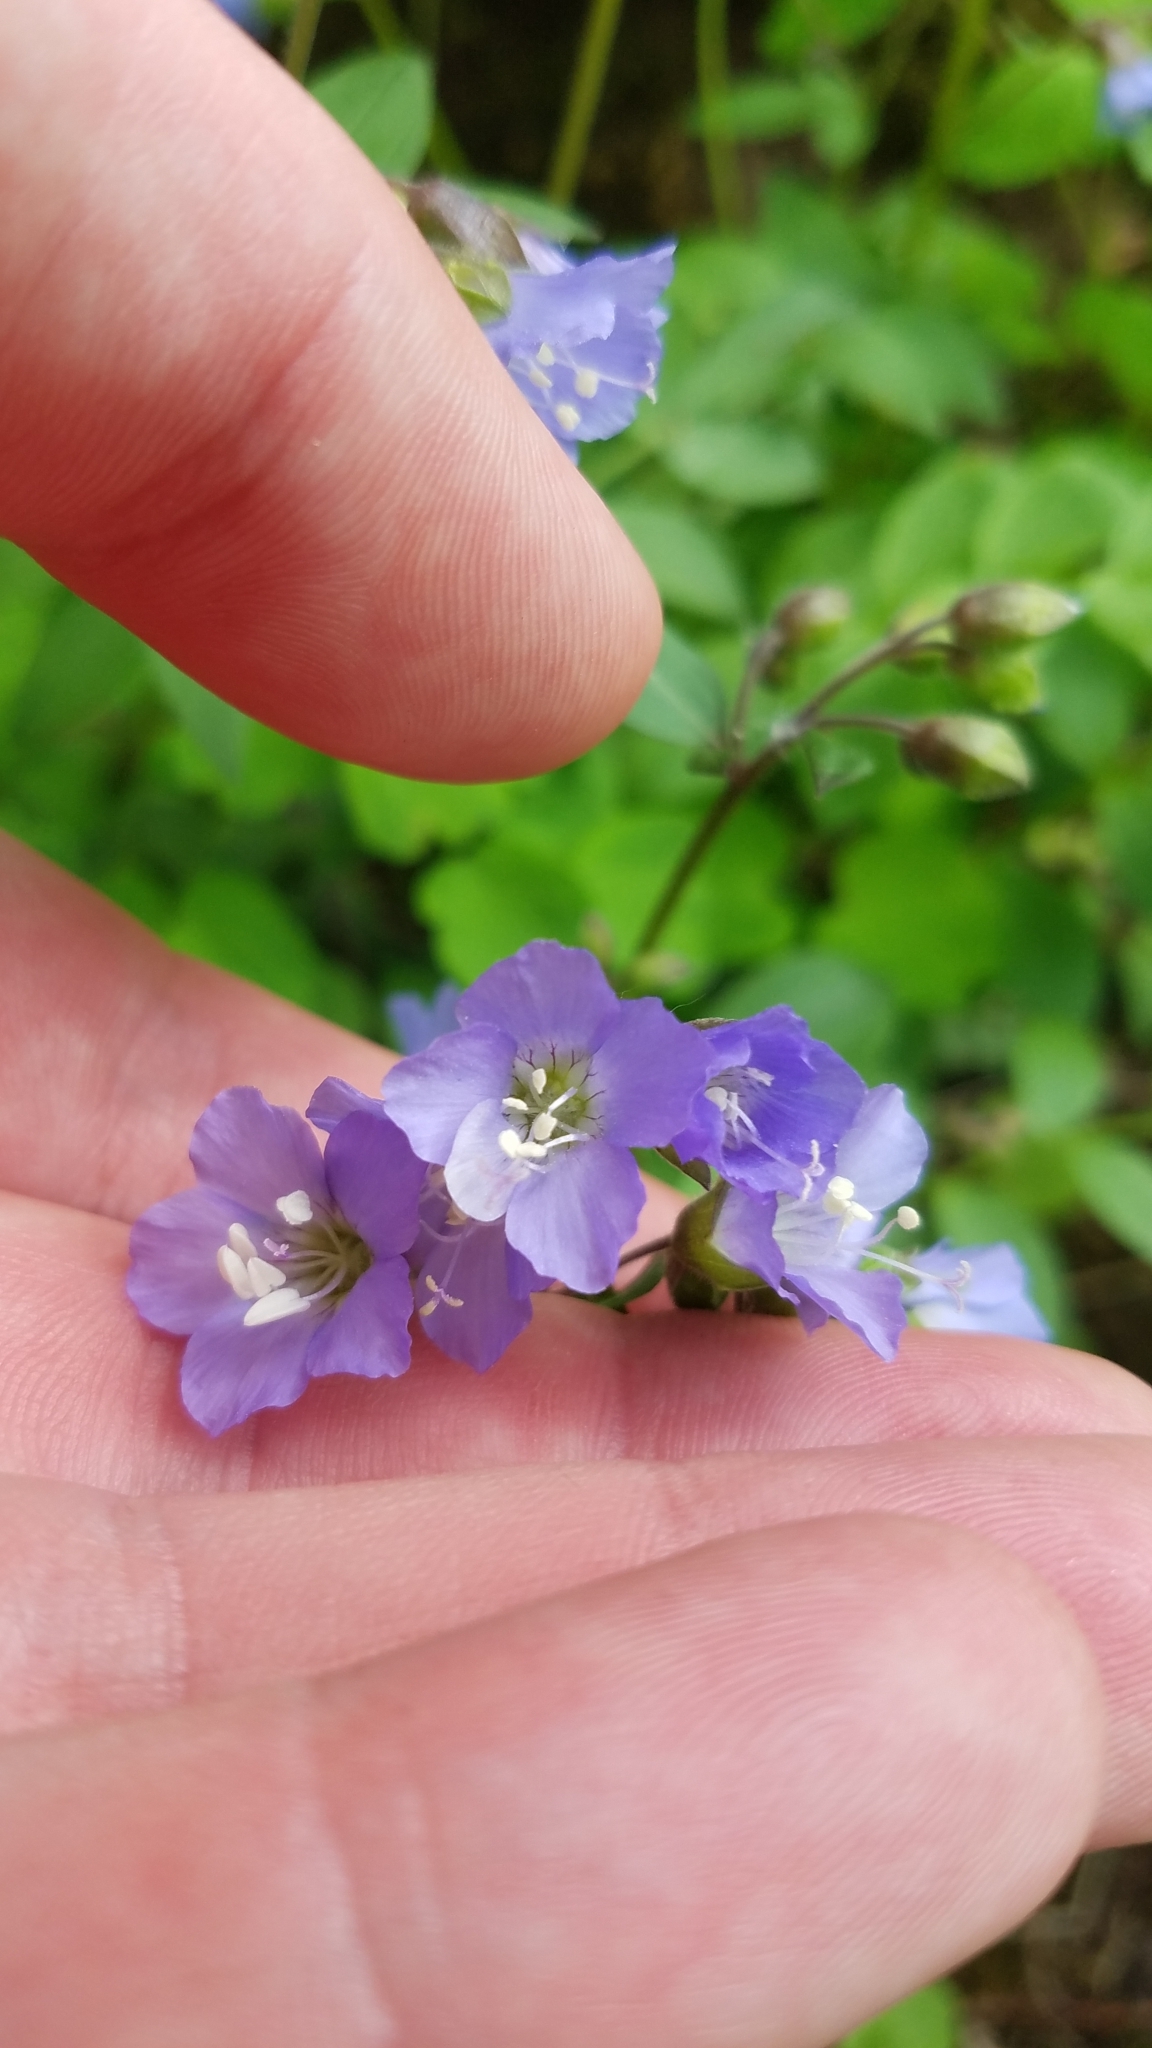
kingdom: Plantae
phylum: Tracheophyta
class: Magnoliopsida
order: Ericales
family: Polemoniaceae
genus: Polemonium
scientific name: Polemonium reptans
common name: Creeping jacob's-ladder
